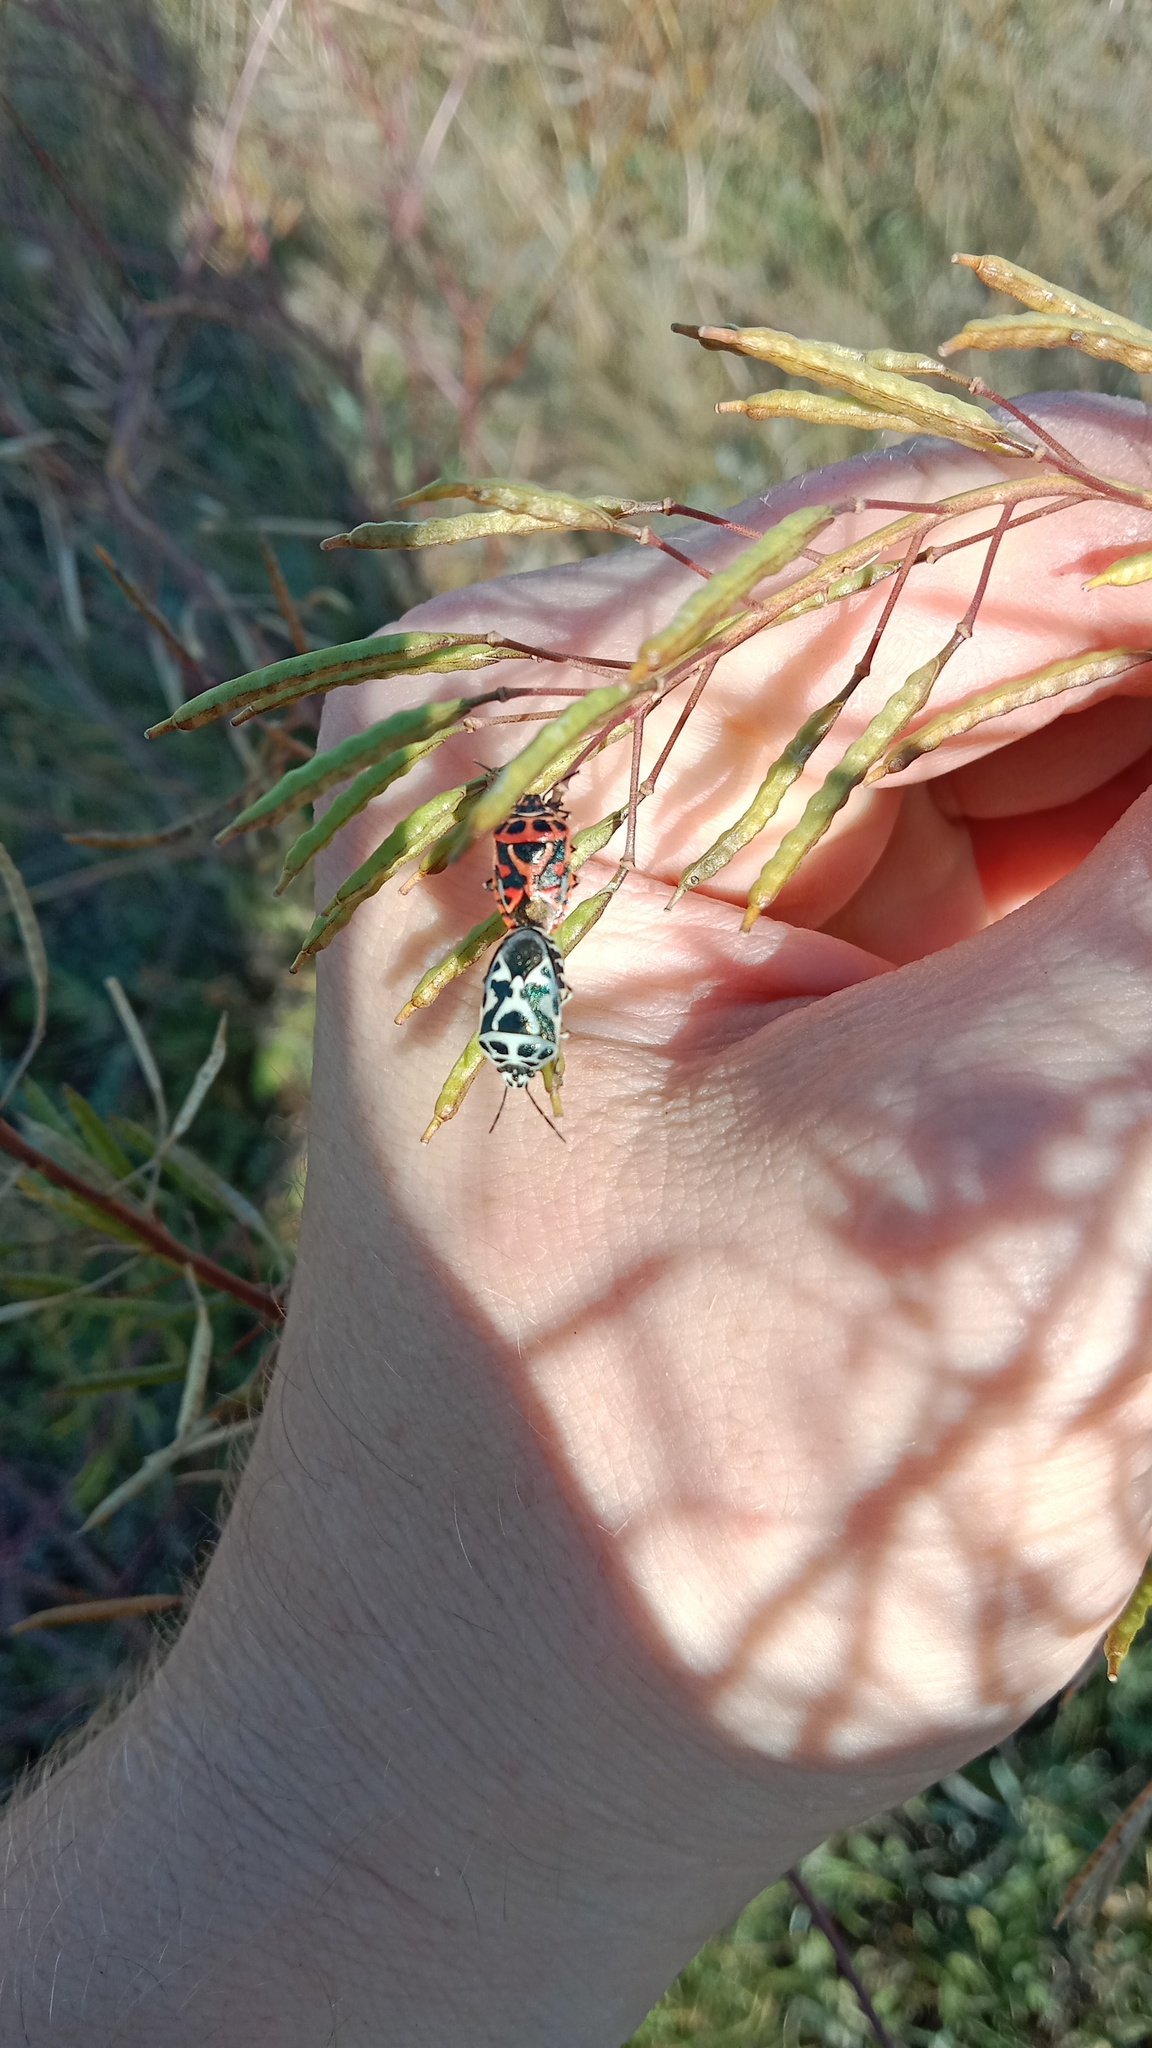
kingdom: Animalia
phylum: Arthropoda
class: Insecta
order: Hemiptera
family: Pentatomidae
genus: Eurydema
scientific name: Eurydema ornata
